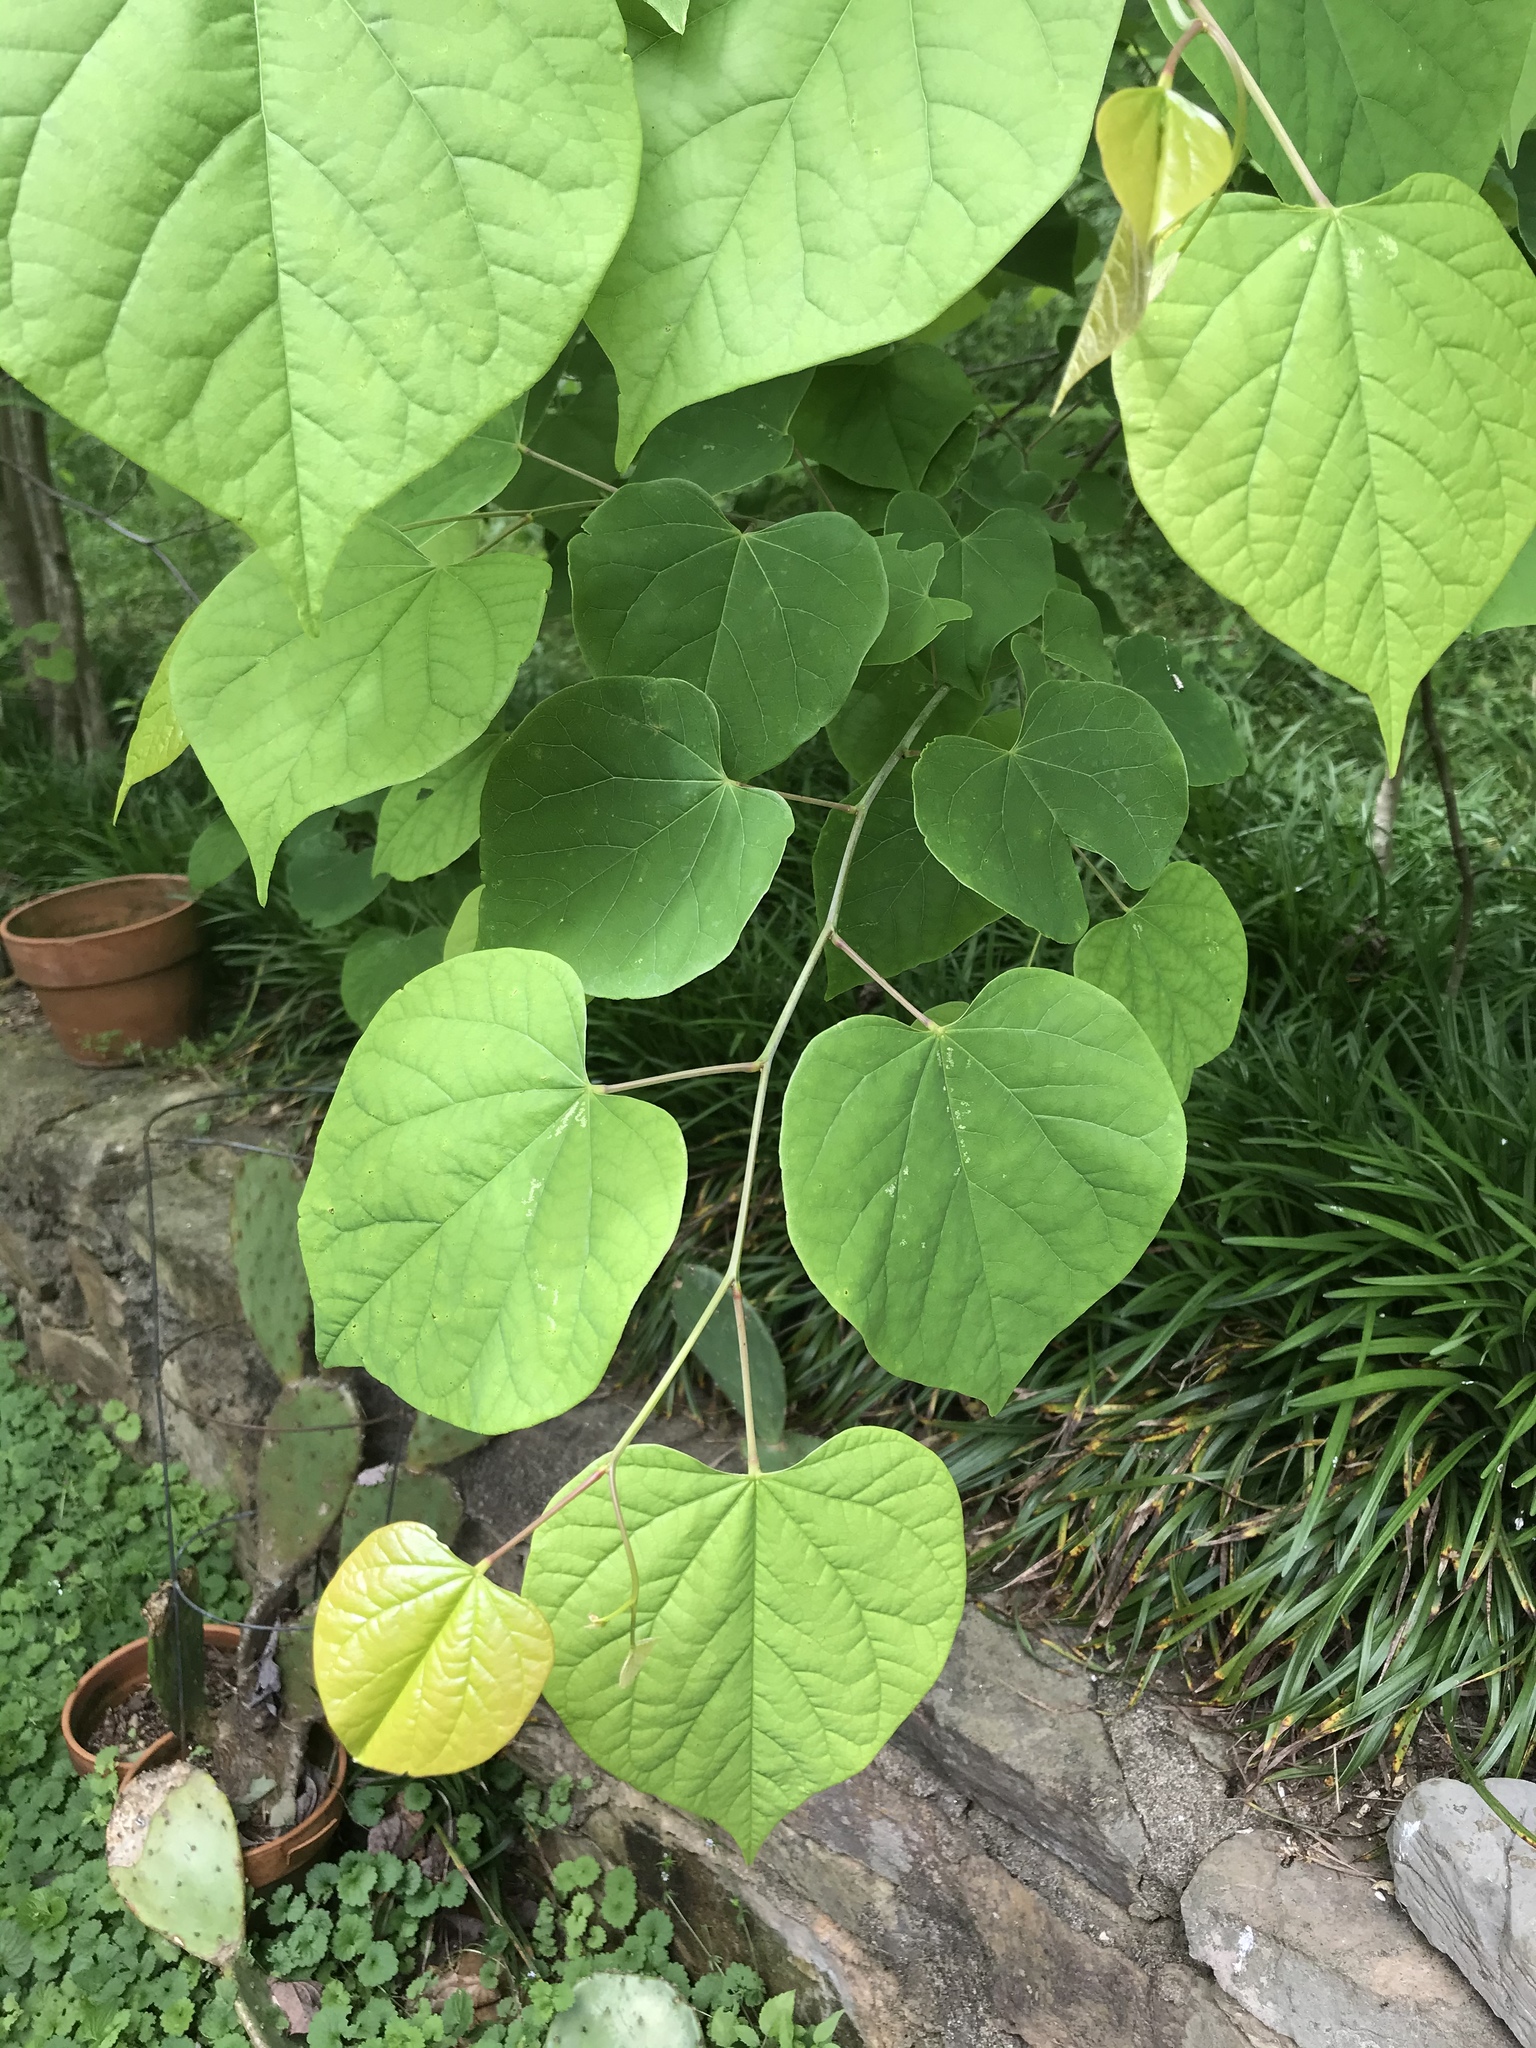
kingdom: Plantae
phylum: Tracheophyta
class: Magnoliopsida
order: Fabales
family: Fabaceae
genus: Cercis
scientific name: Cercis canadensis
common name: Eastern redbud
